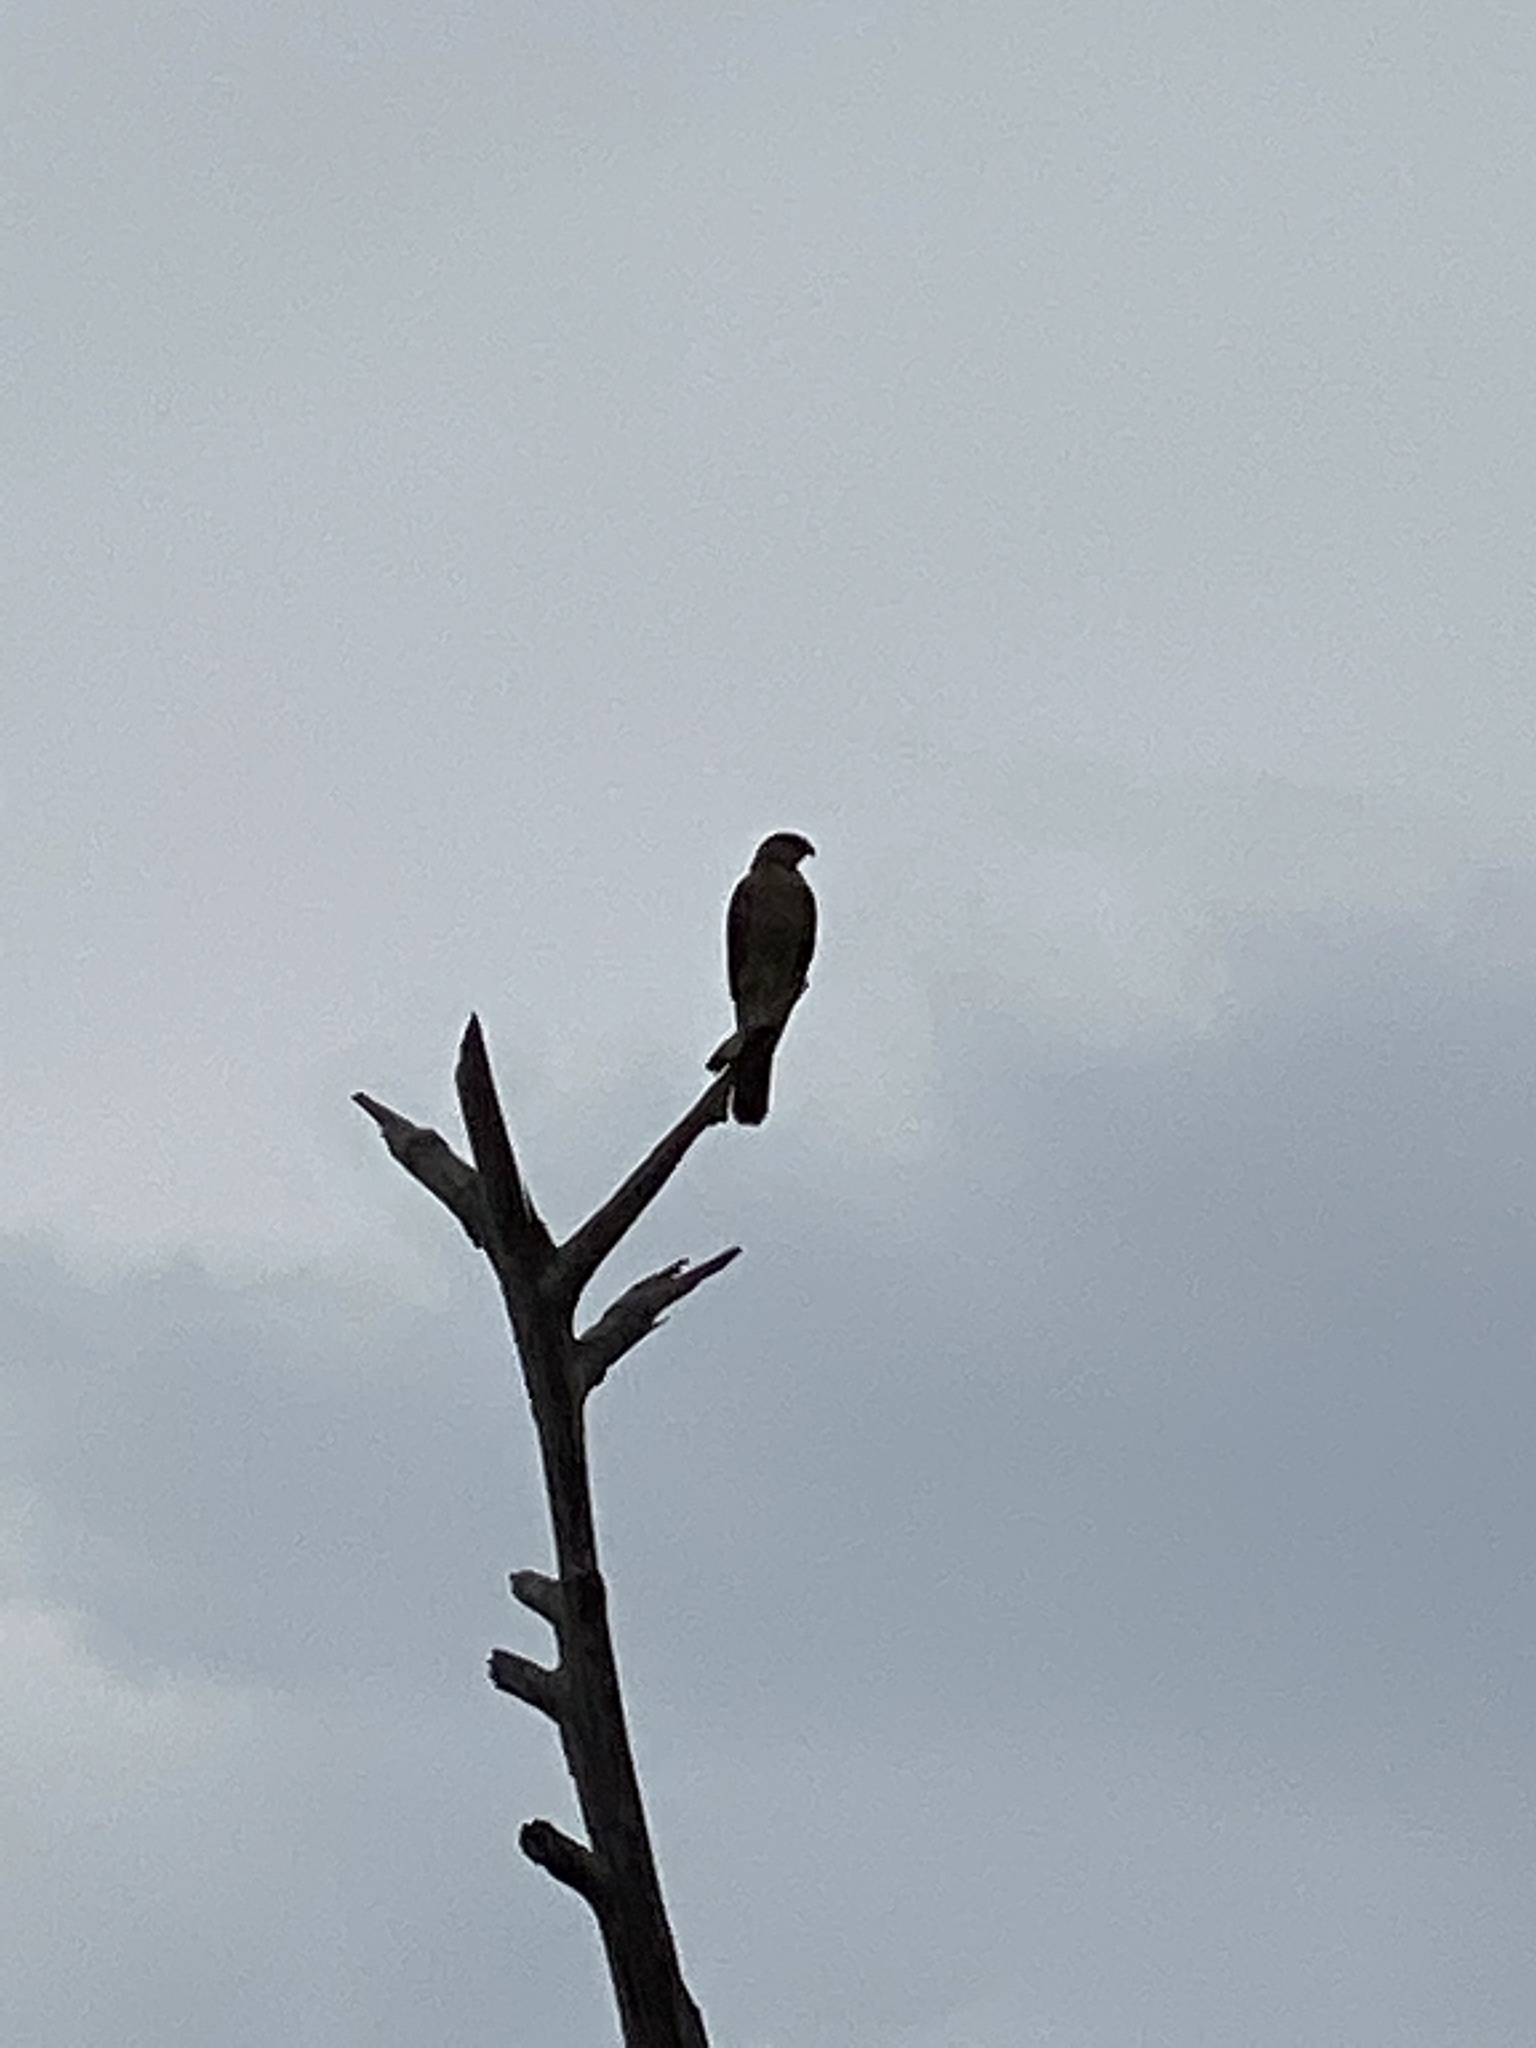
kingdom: Animalia
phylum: Chordata
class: Aves
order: Accipitriformes
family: Accipitridae
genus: Accipiter
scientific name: Accipiter cooperii
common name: Cooper's hawk
